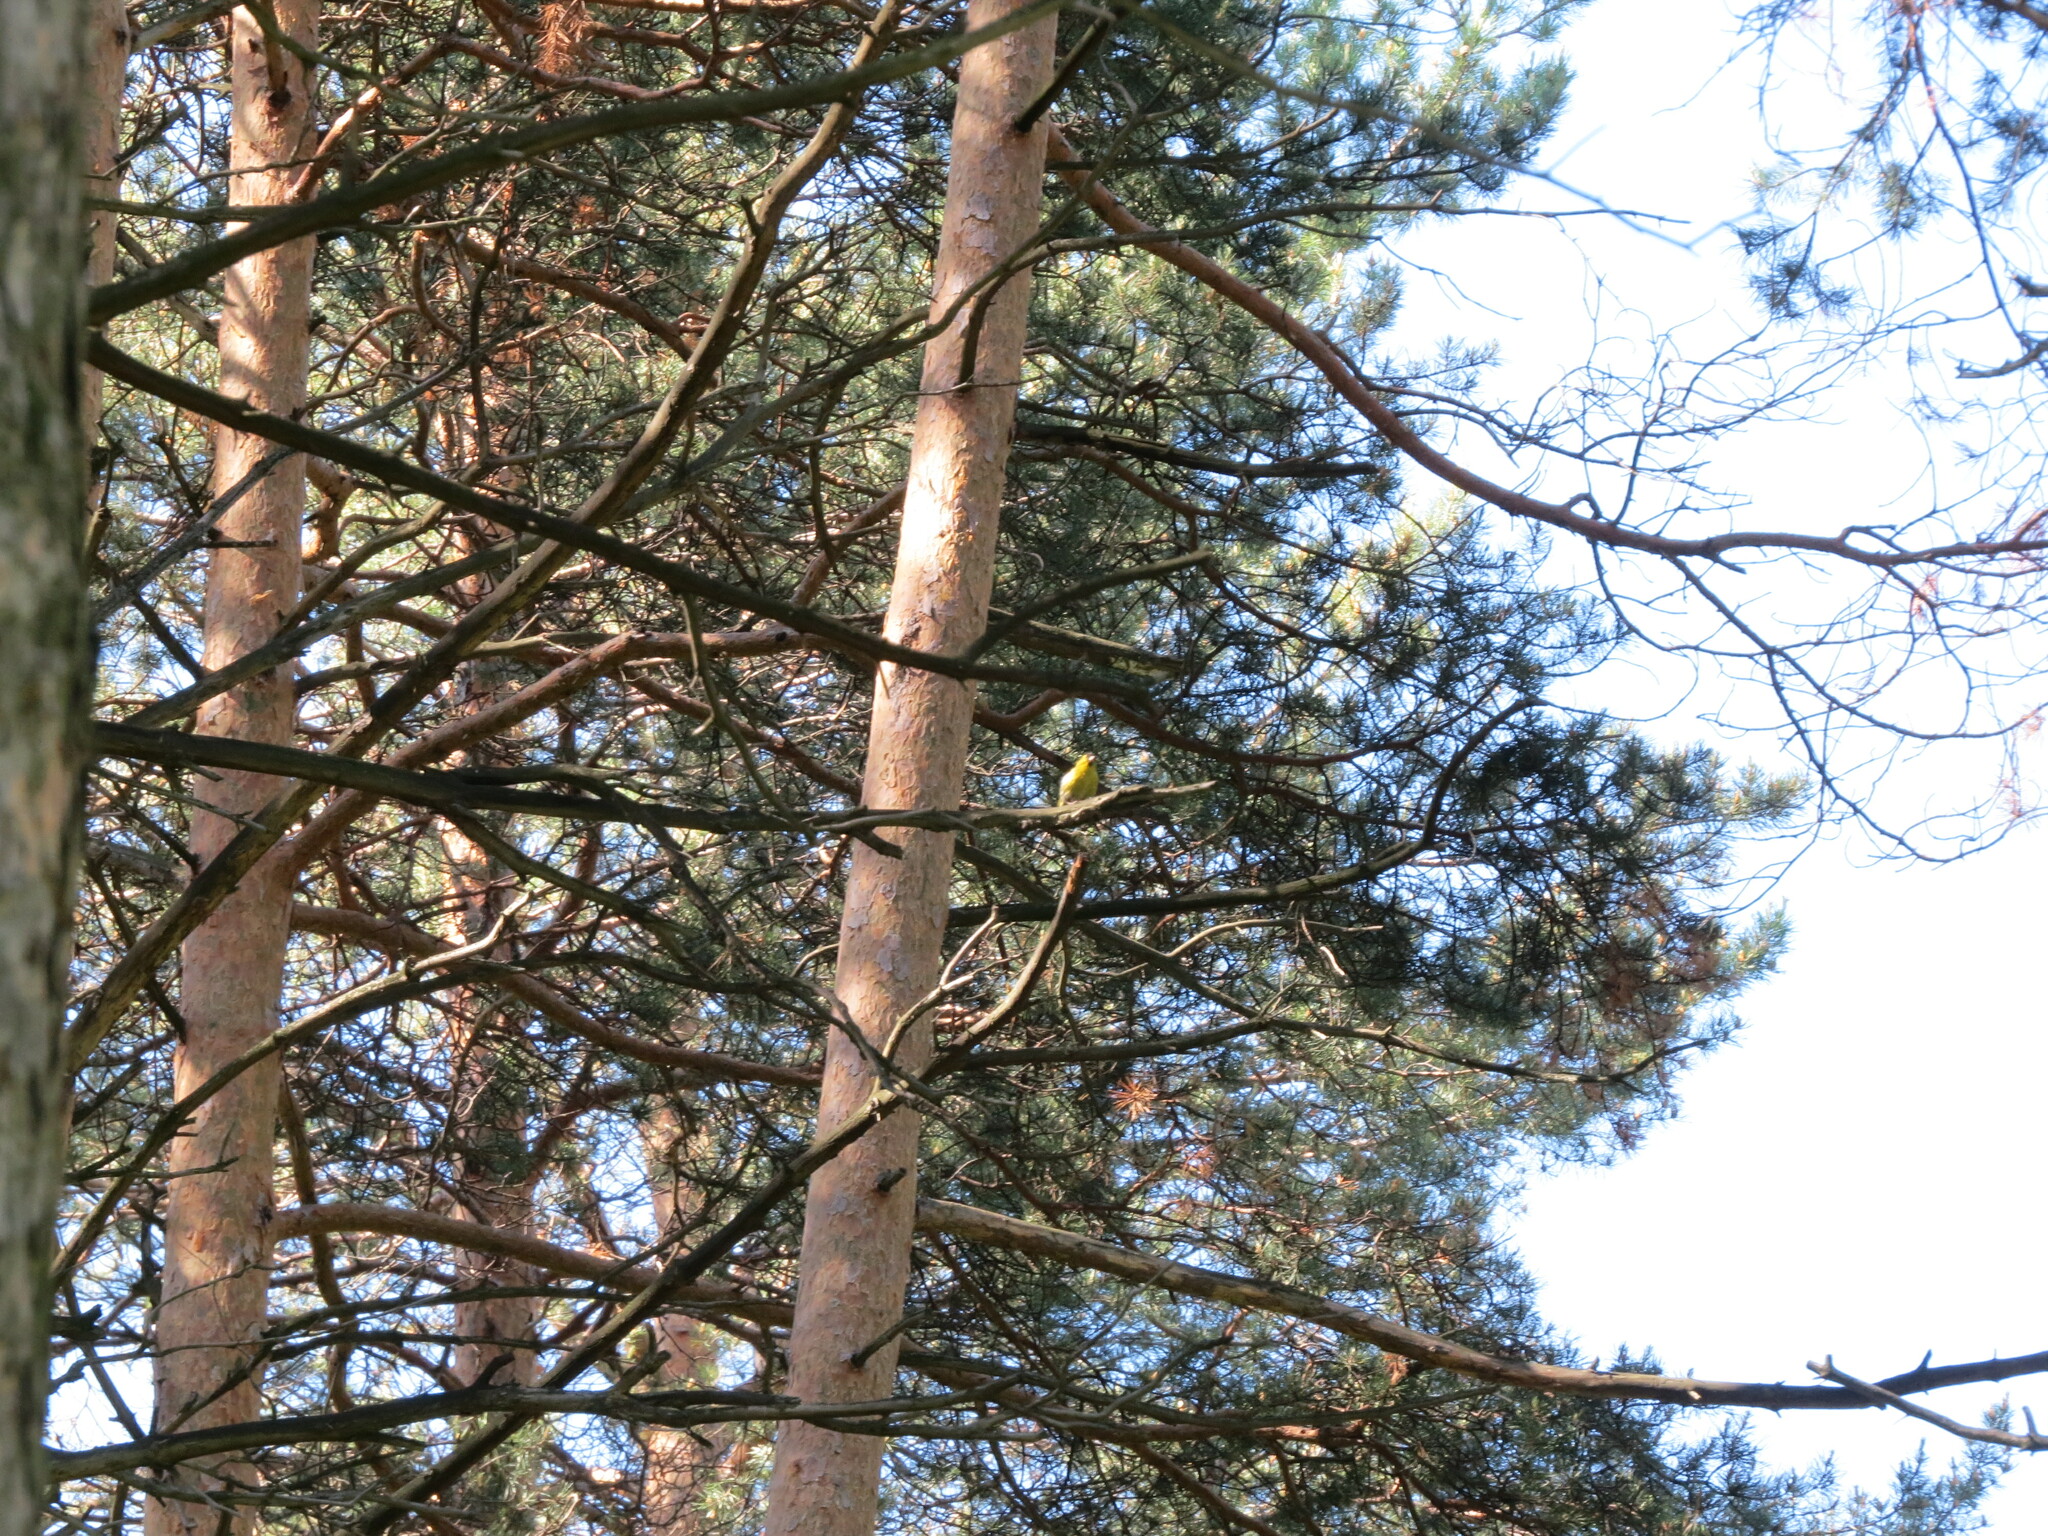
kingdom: Animalia
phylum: Chordata
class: Aves
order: Passeriformes
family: Fringillidae
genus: Spinus
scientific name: Spinus spinus
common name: Eurasian siskin
